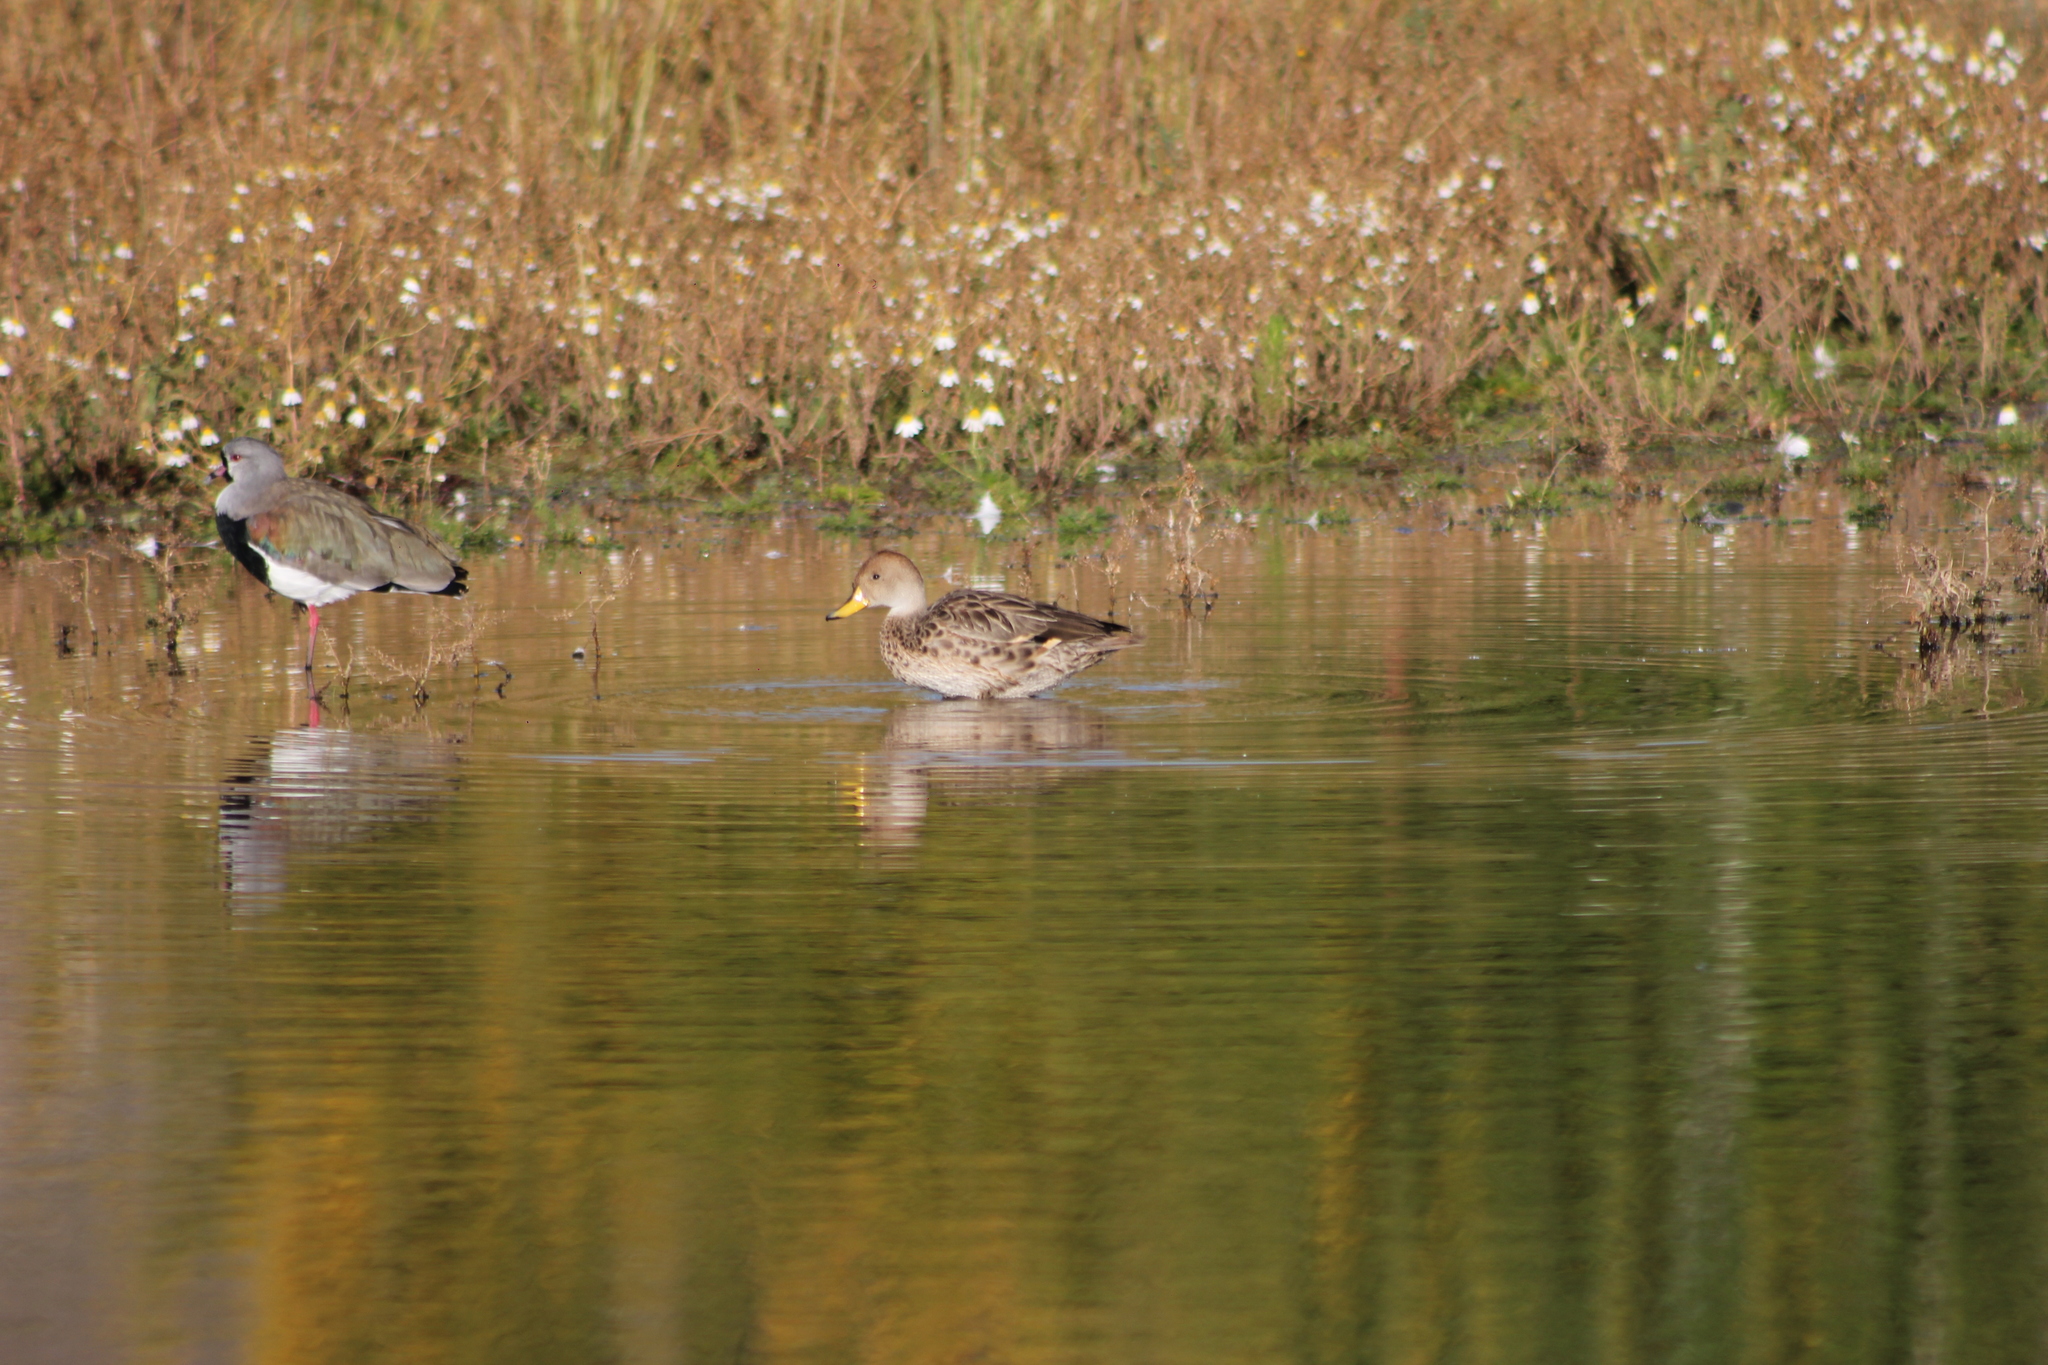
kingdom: Animalia
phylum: Chordata
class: Aves
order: Anseriformes
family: Anatidae
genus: Anas
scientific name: Anas georgica
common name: Yellow-billed pintail
